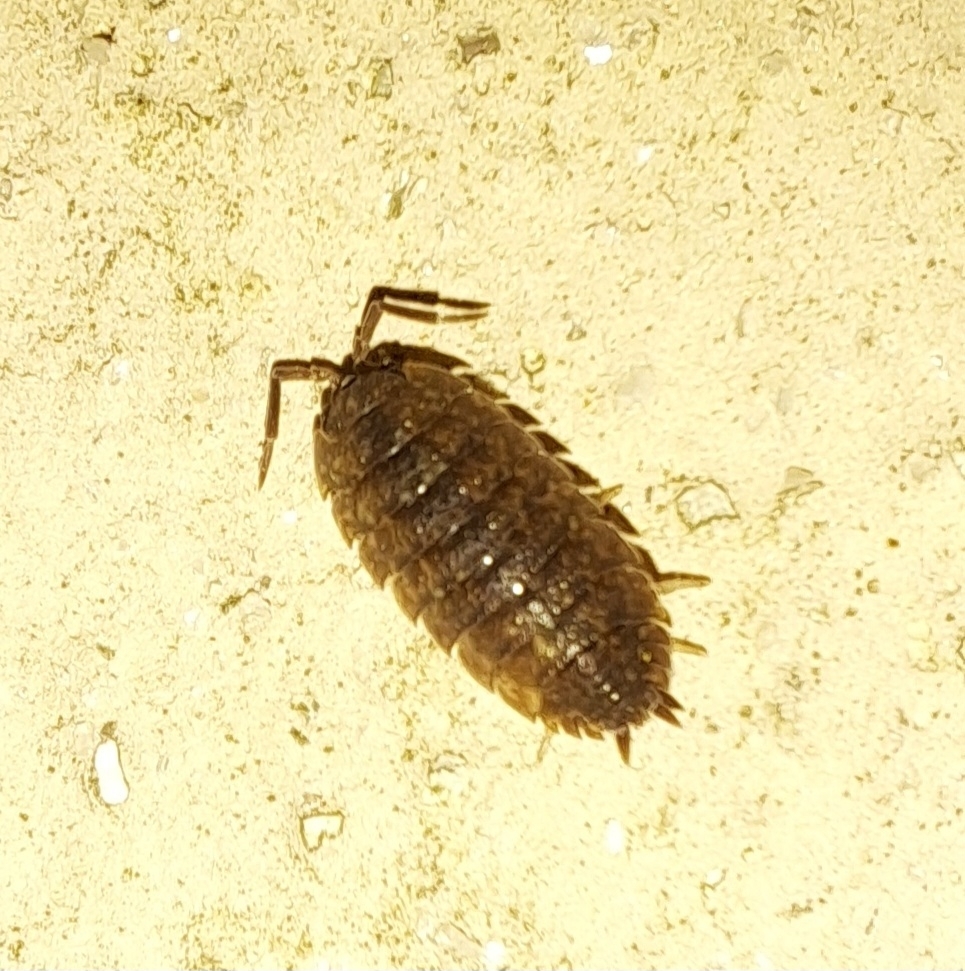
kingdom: Animalia
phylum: Arthropoda
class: Malacostraca
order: Isopoda
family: Porcellionidae
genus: Porcellio
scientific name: Porcellio scaber
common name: Common rough woodlouse
